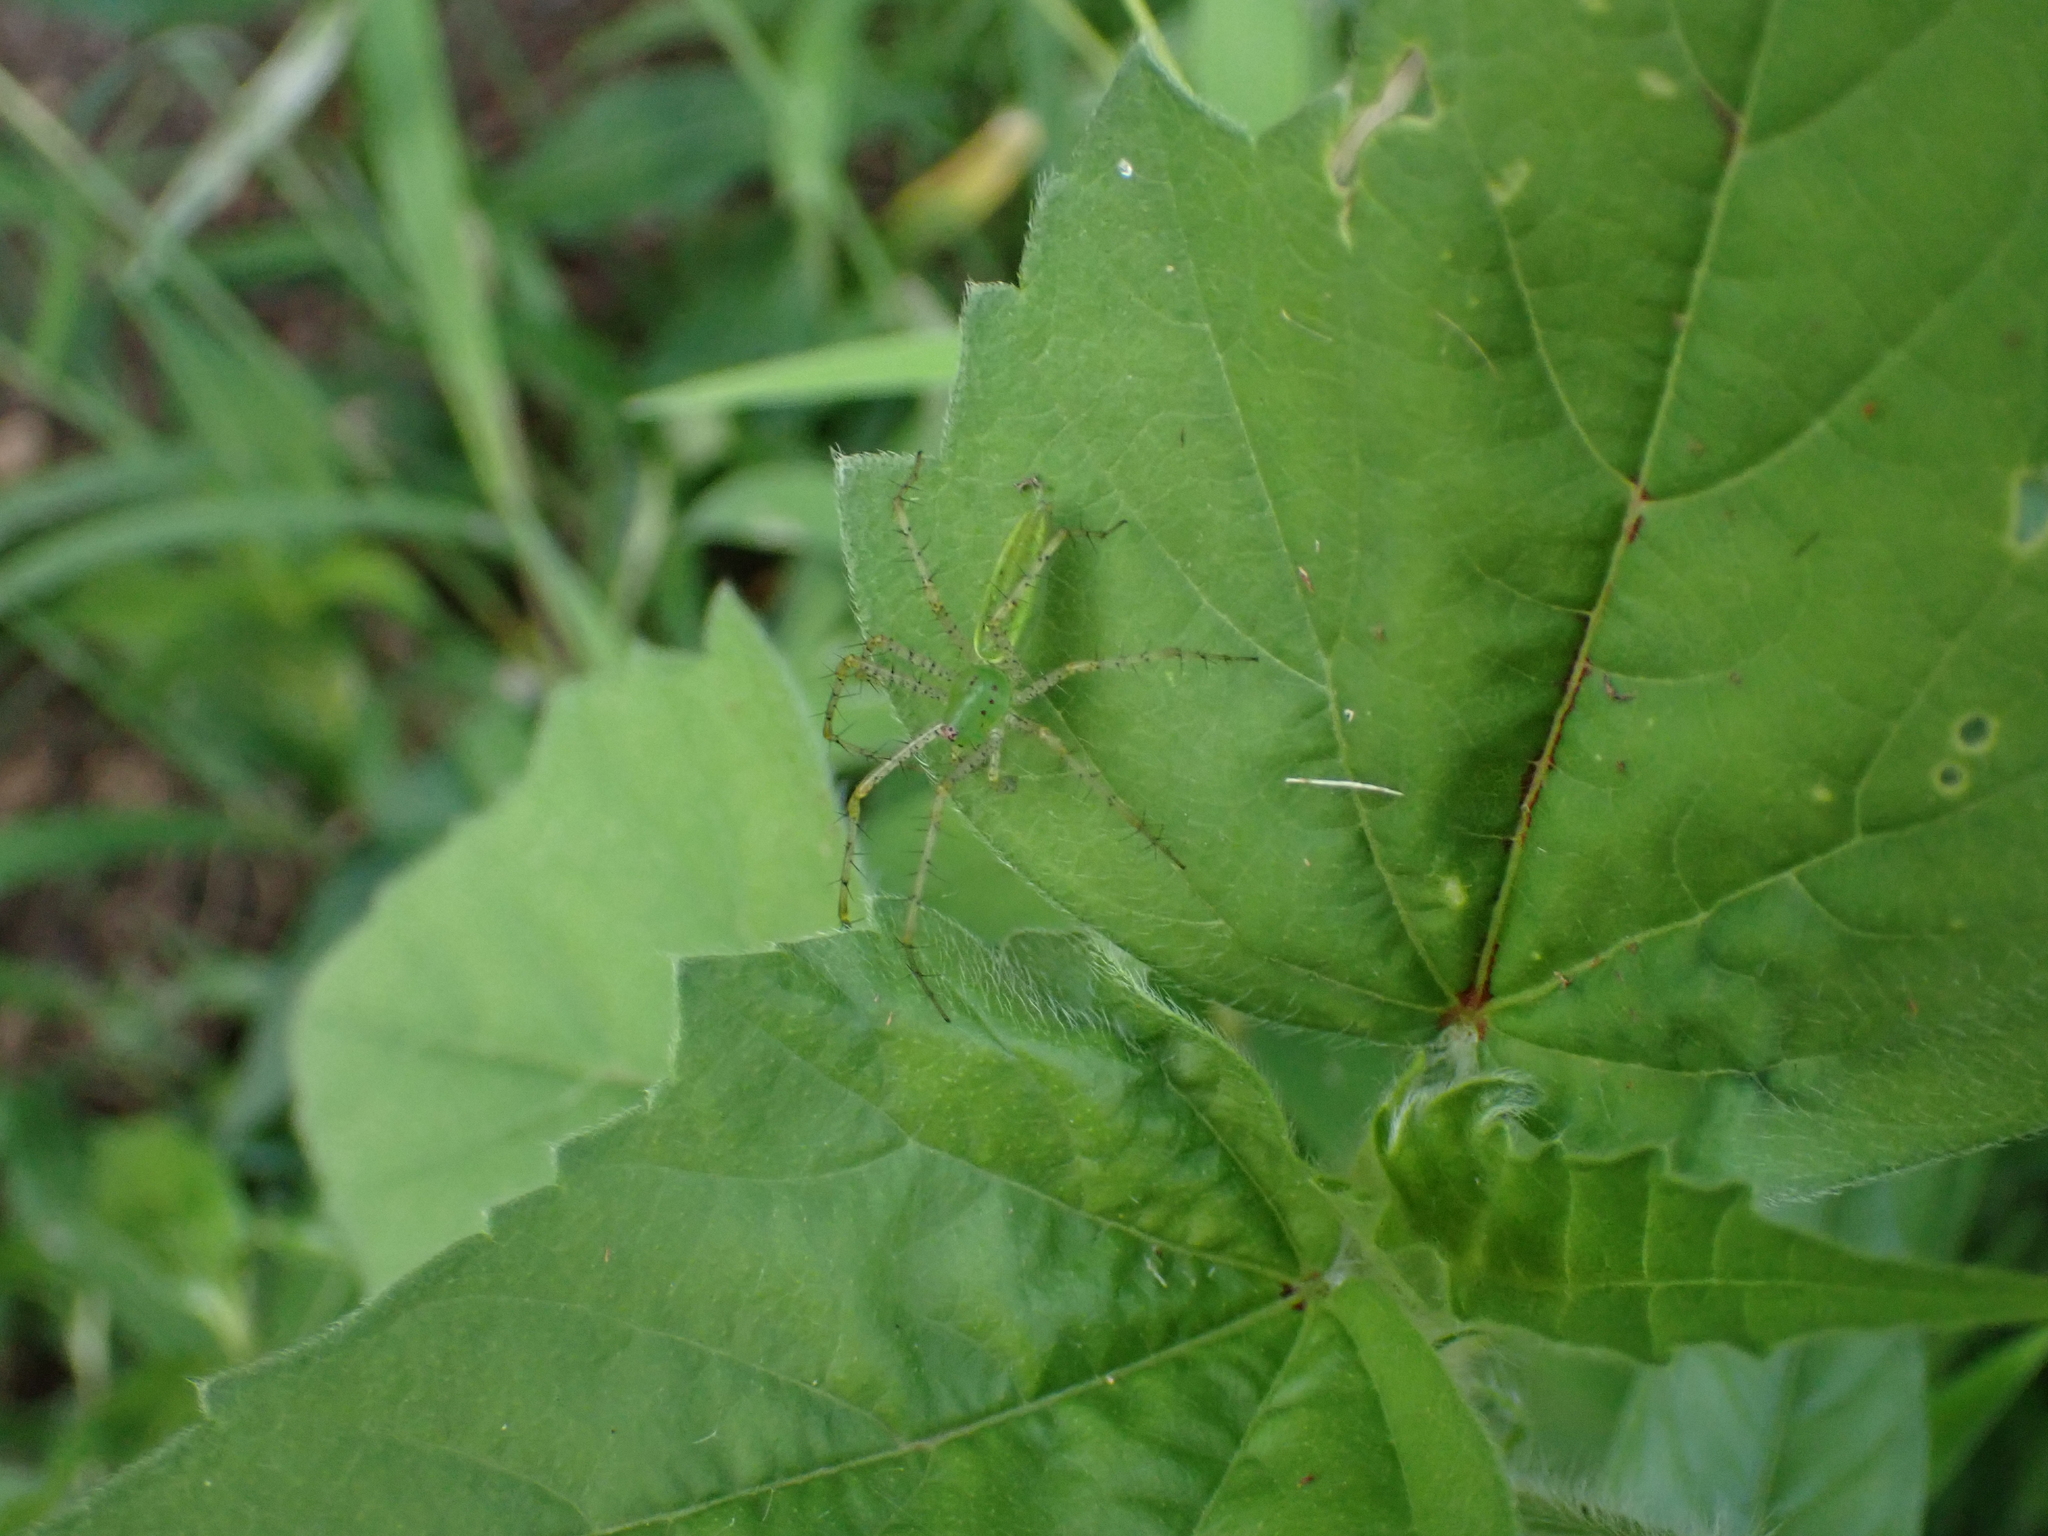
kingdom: Animalia
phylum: Arthropoda
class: Arachnida
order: Araneae
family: Oxyopidae
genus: Peucetia
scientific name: Peucetia viridans
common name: Lynx spiders
